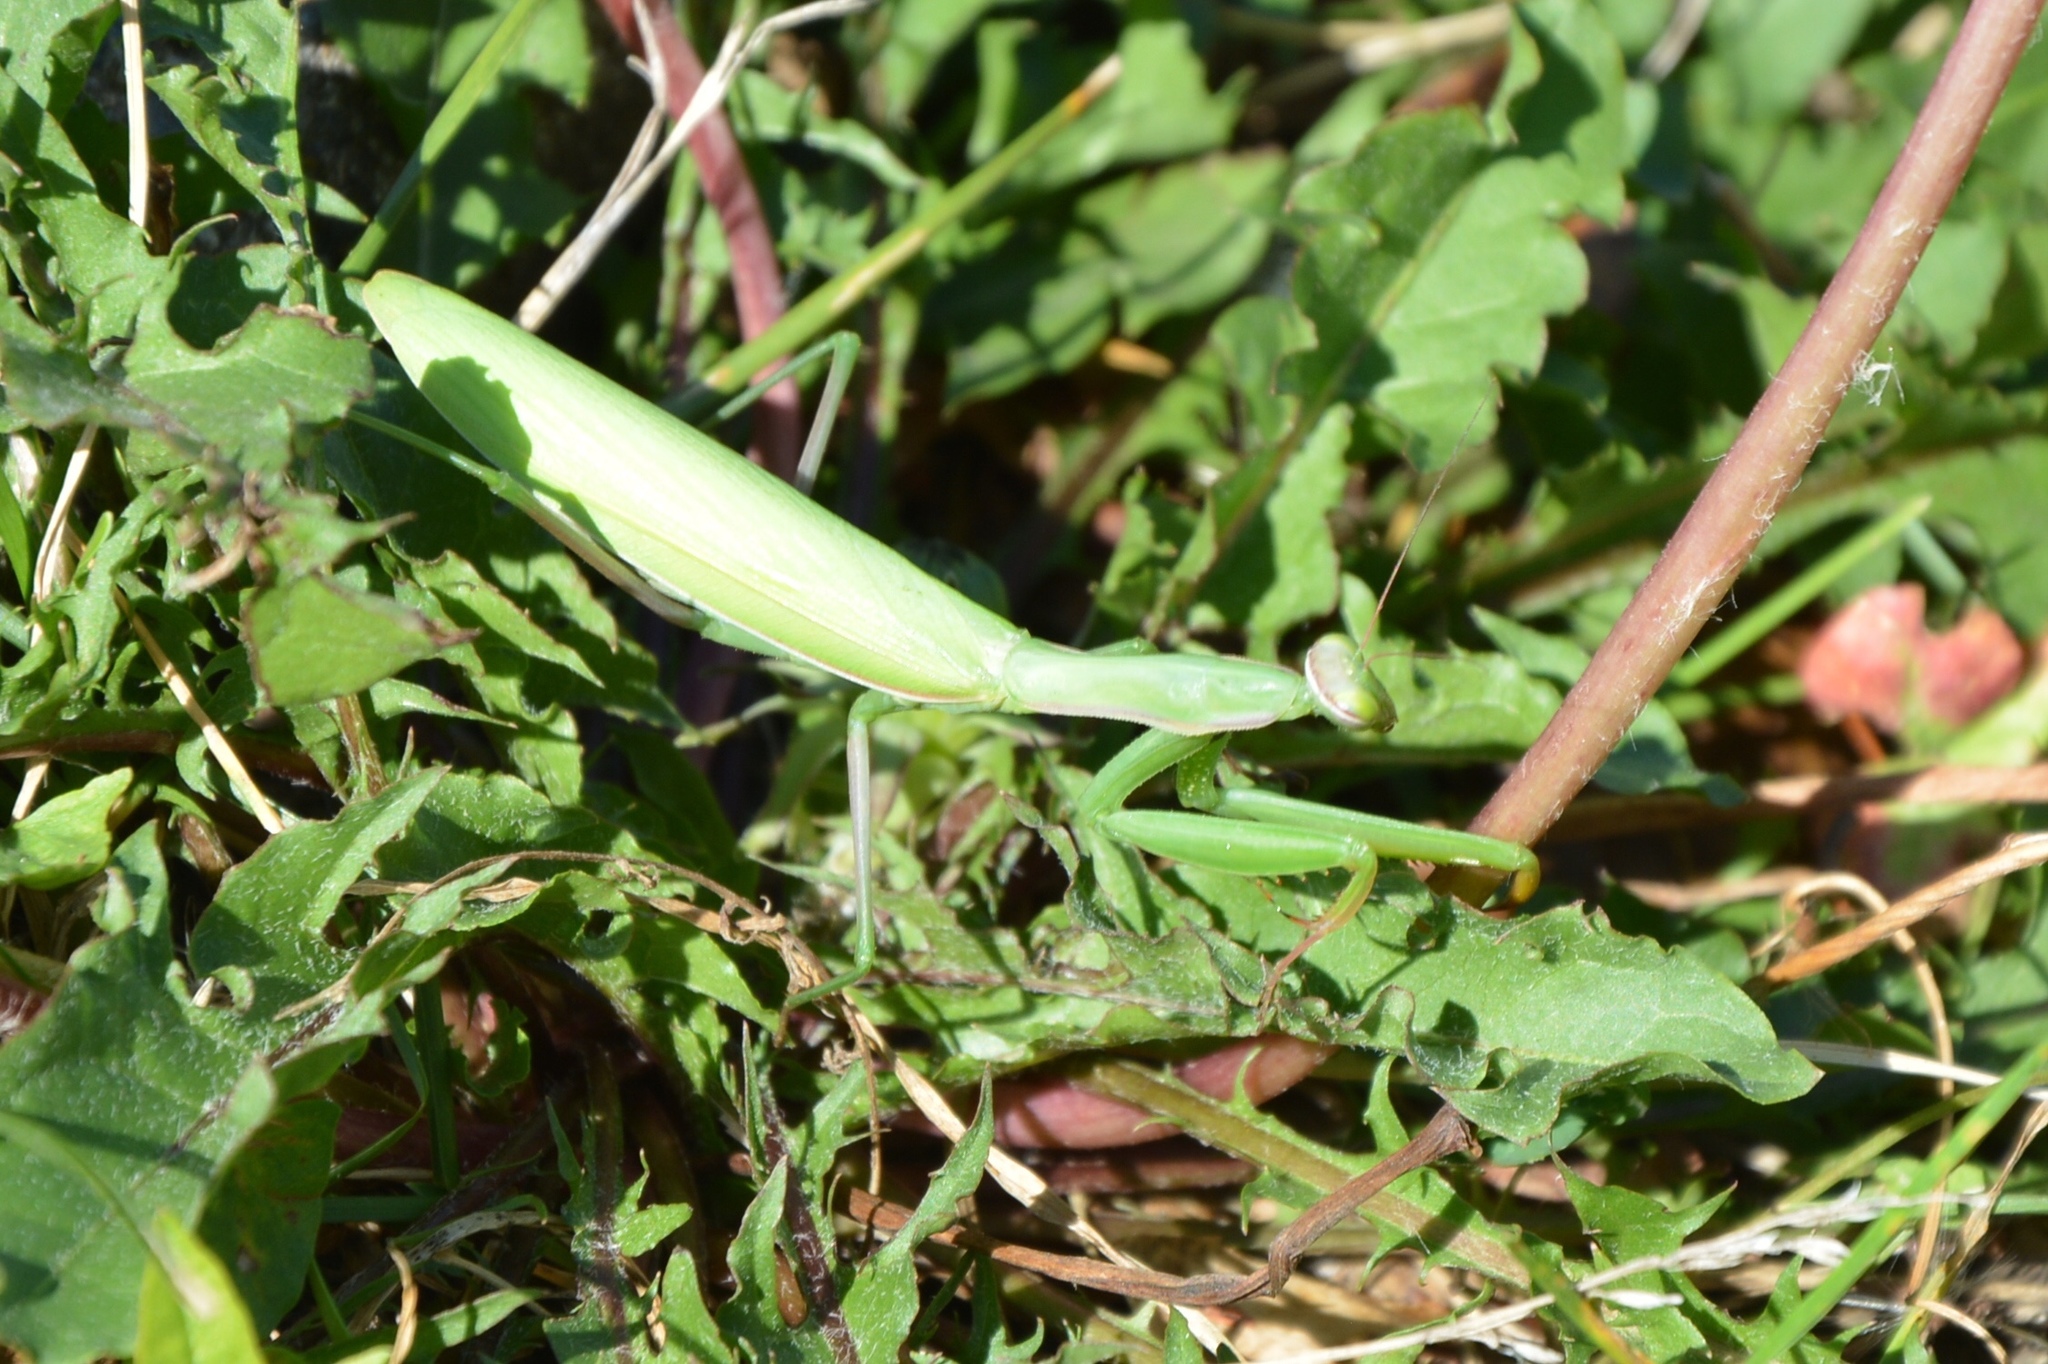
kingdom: Animalia
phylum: Arthropoda
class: Insecta
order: Mantodea
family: Mantidae
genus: Mantis
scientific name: Mantis religiosa
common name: Praying mantis
